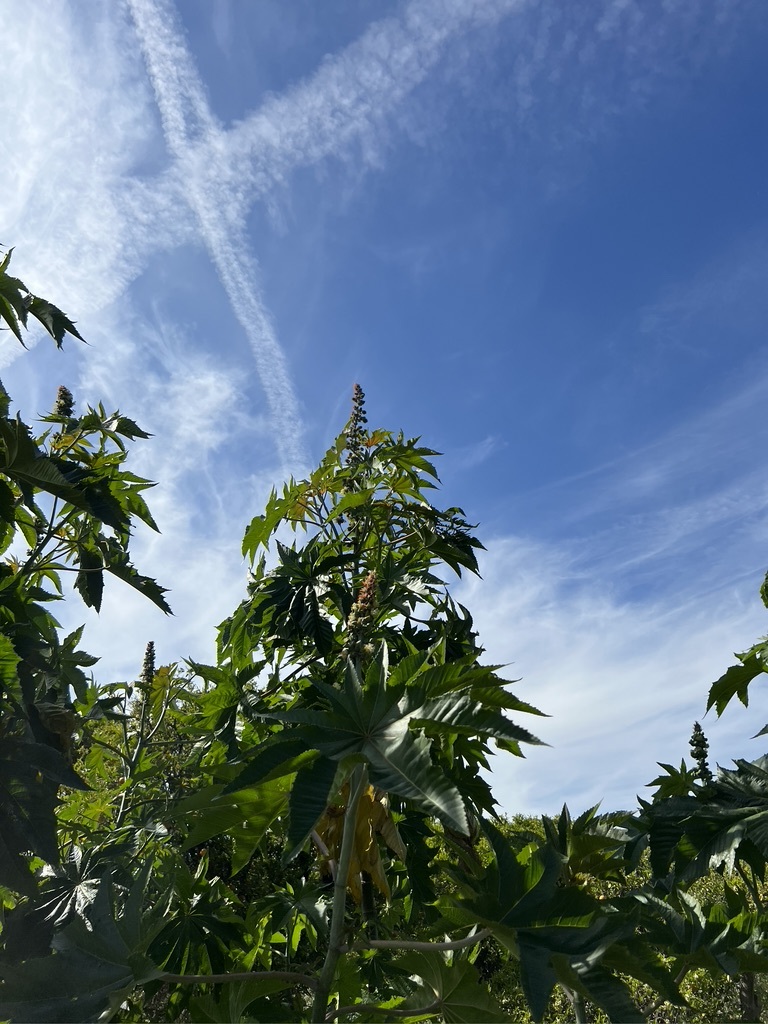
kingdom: Plantae
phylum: Tracheophyta
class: Magnoliopsida
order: Malpighiales
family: Euphorbiaceae
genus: Ricinus
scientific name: Ricinus communis
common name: Castor-oil-plant
